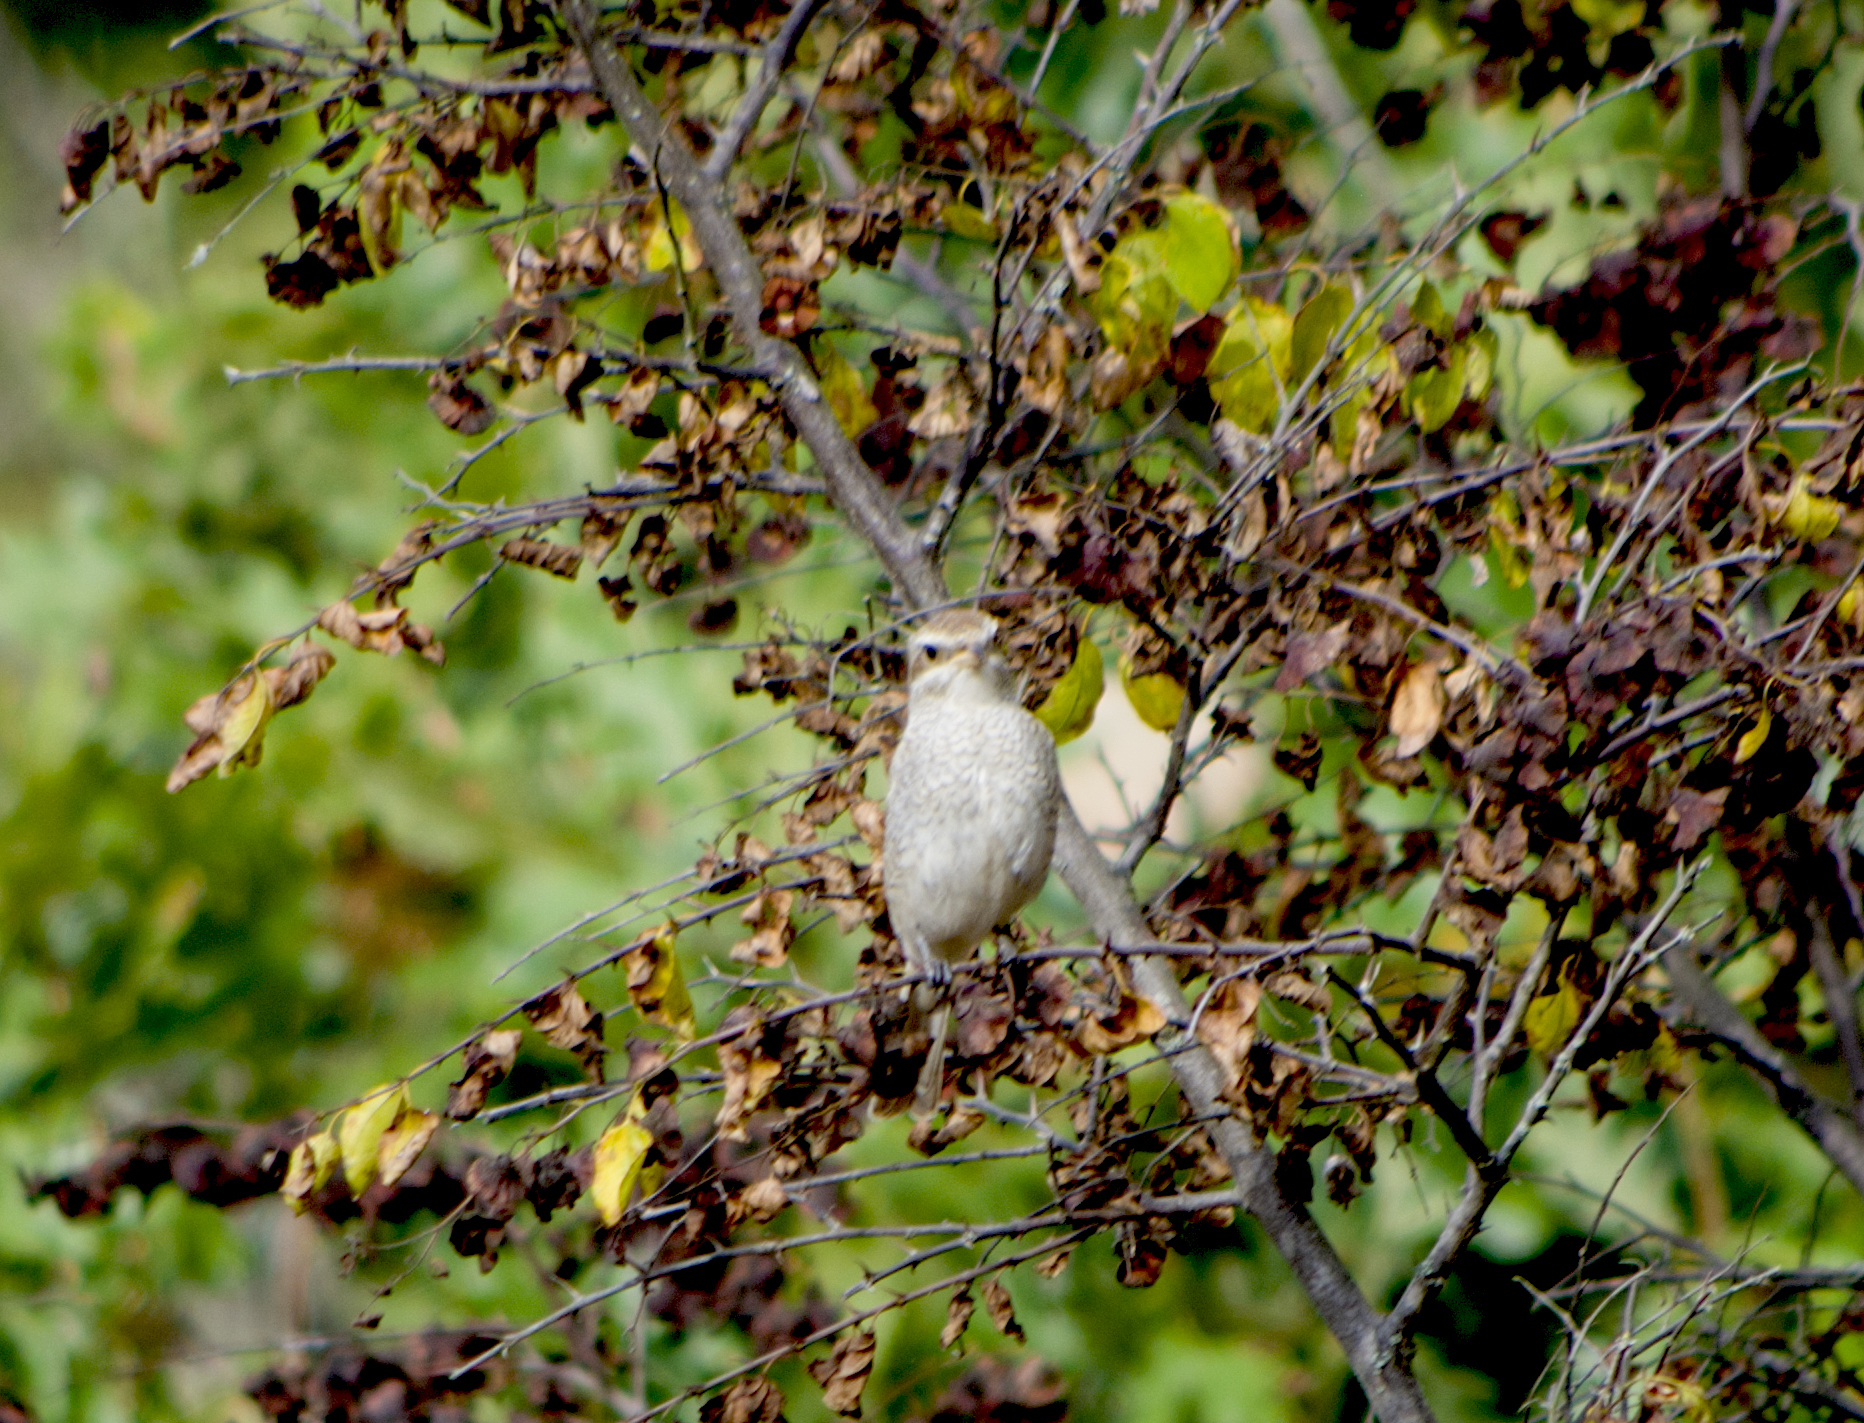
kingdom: Animalia
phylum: Chordata
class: Aves
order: Passeriformes
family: Laniidae
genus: Lanius
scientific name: Lanius collurio
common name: Red-backed shrike
